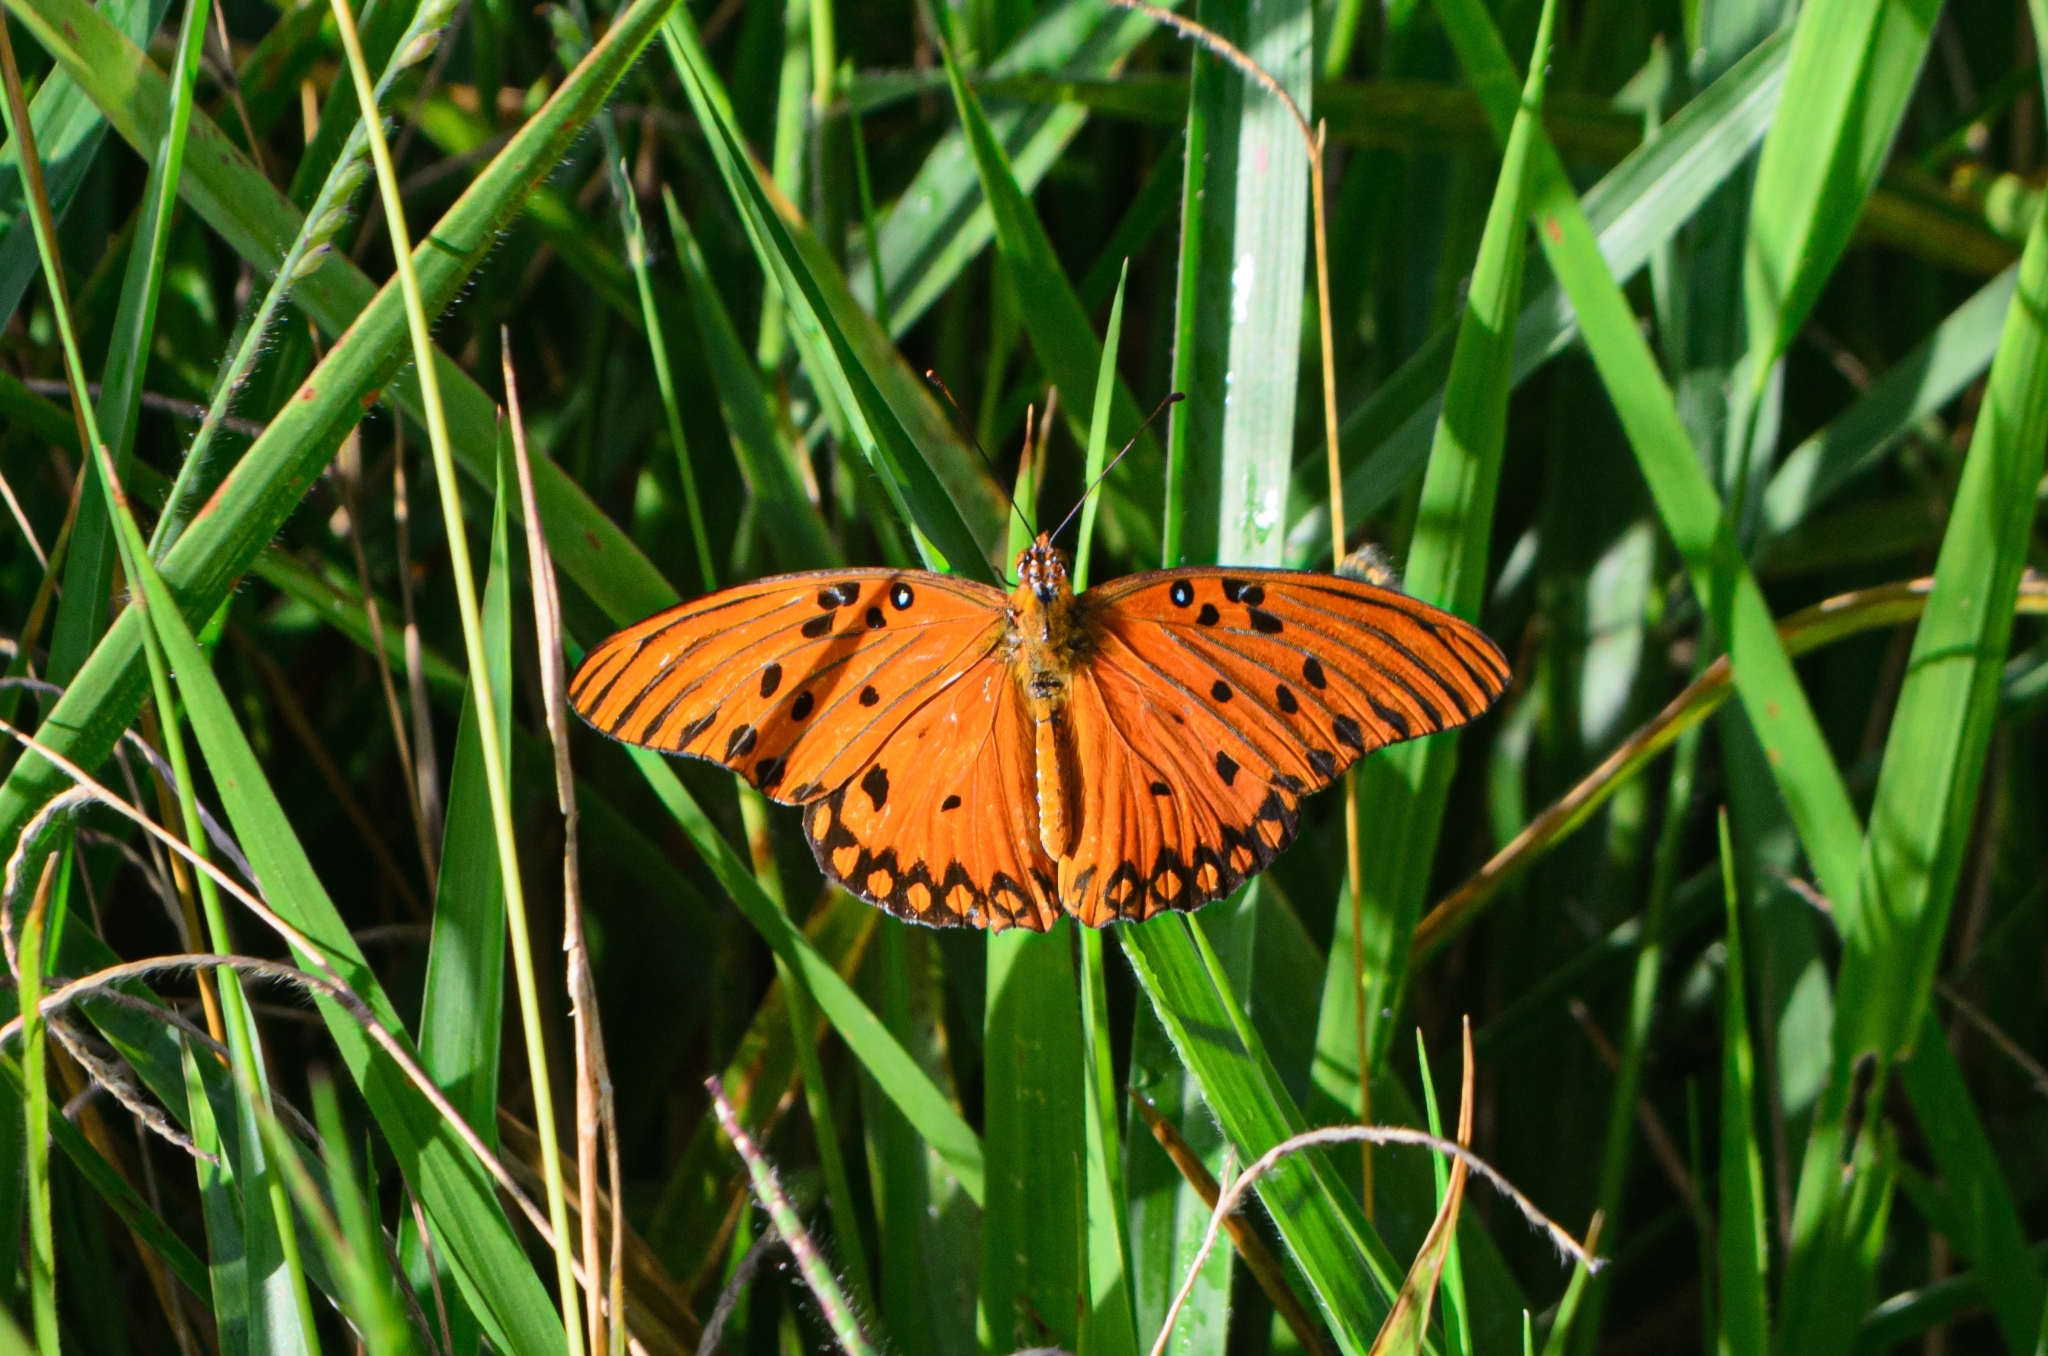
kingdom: Animalia
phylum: Arthropoda
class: Insecta
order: Lepidoptera
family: Nymphalidae
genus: Dione
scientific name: Dione vanillae
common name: Gulf fritillary
